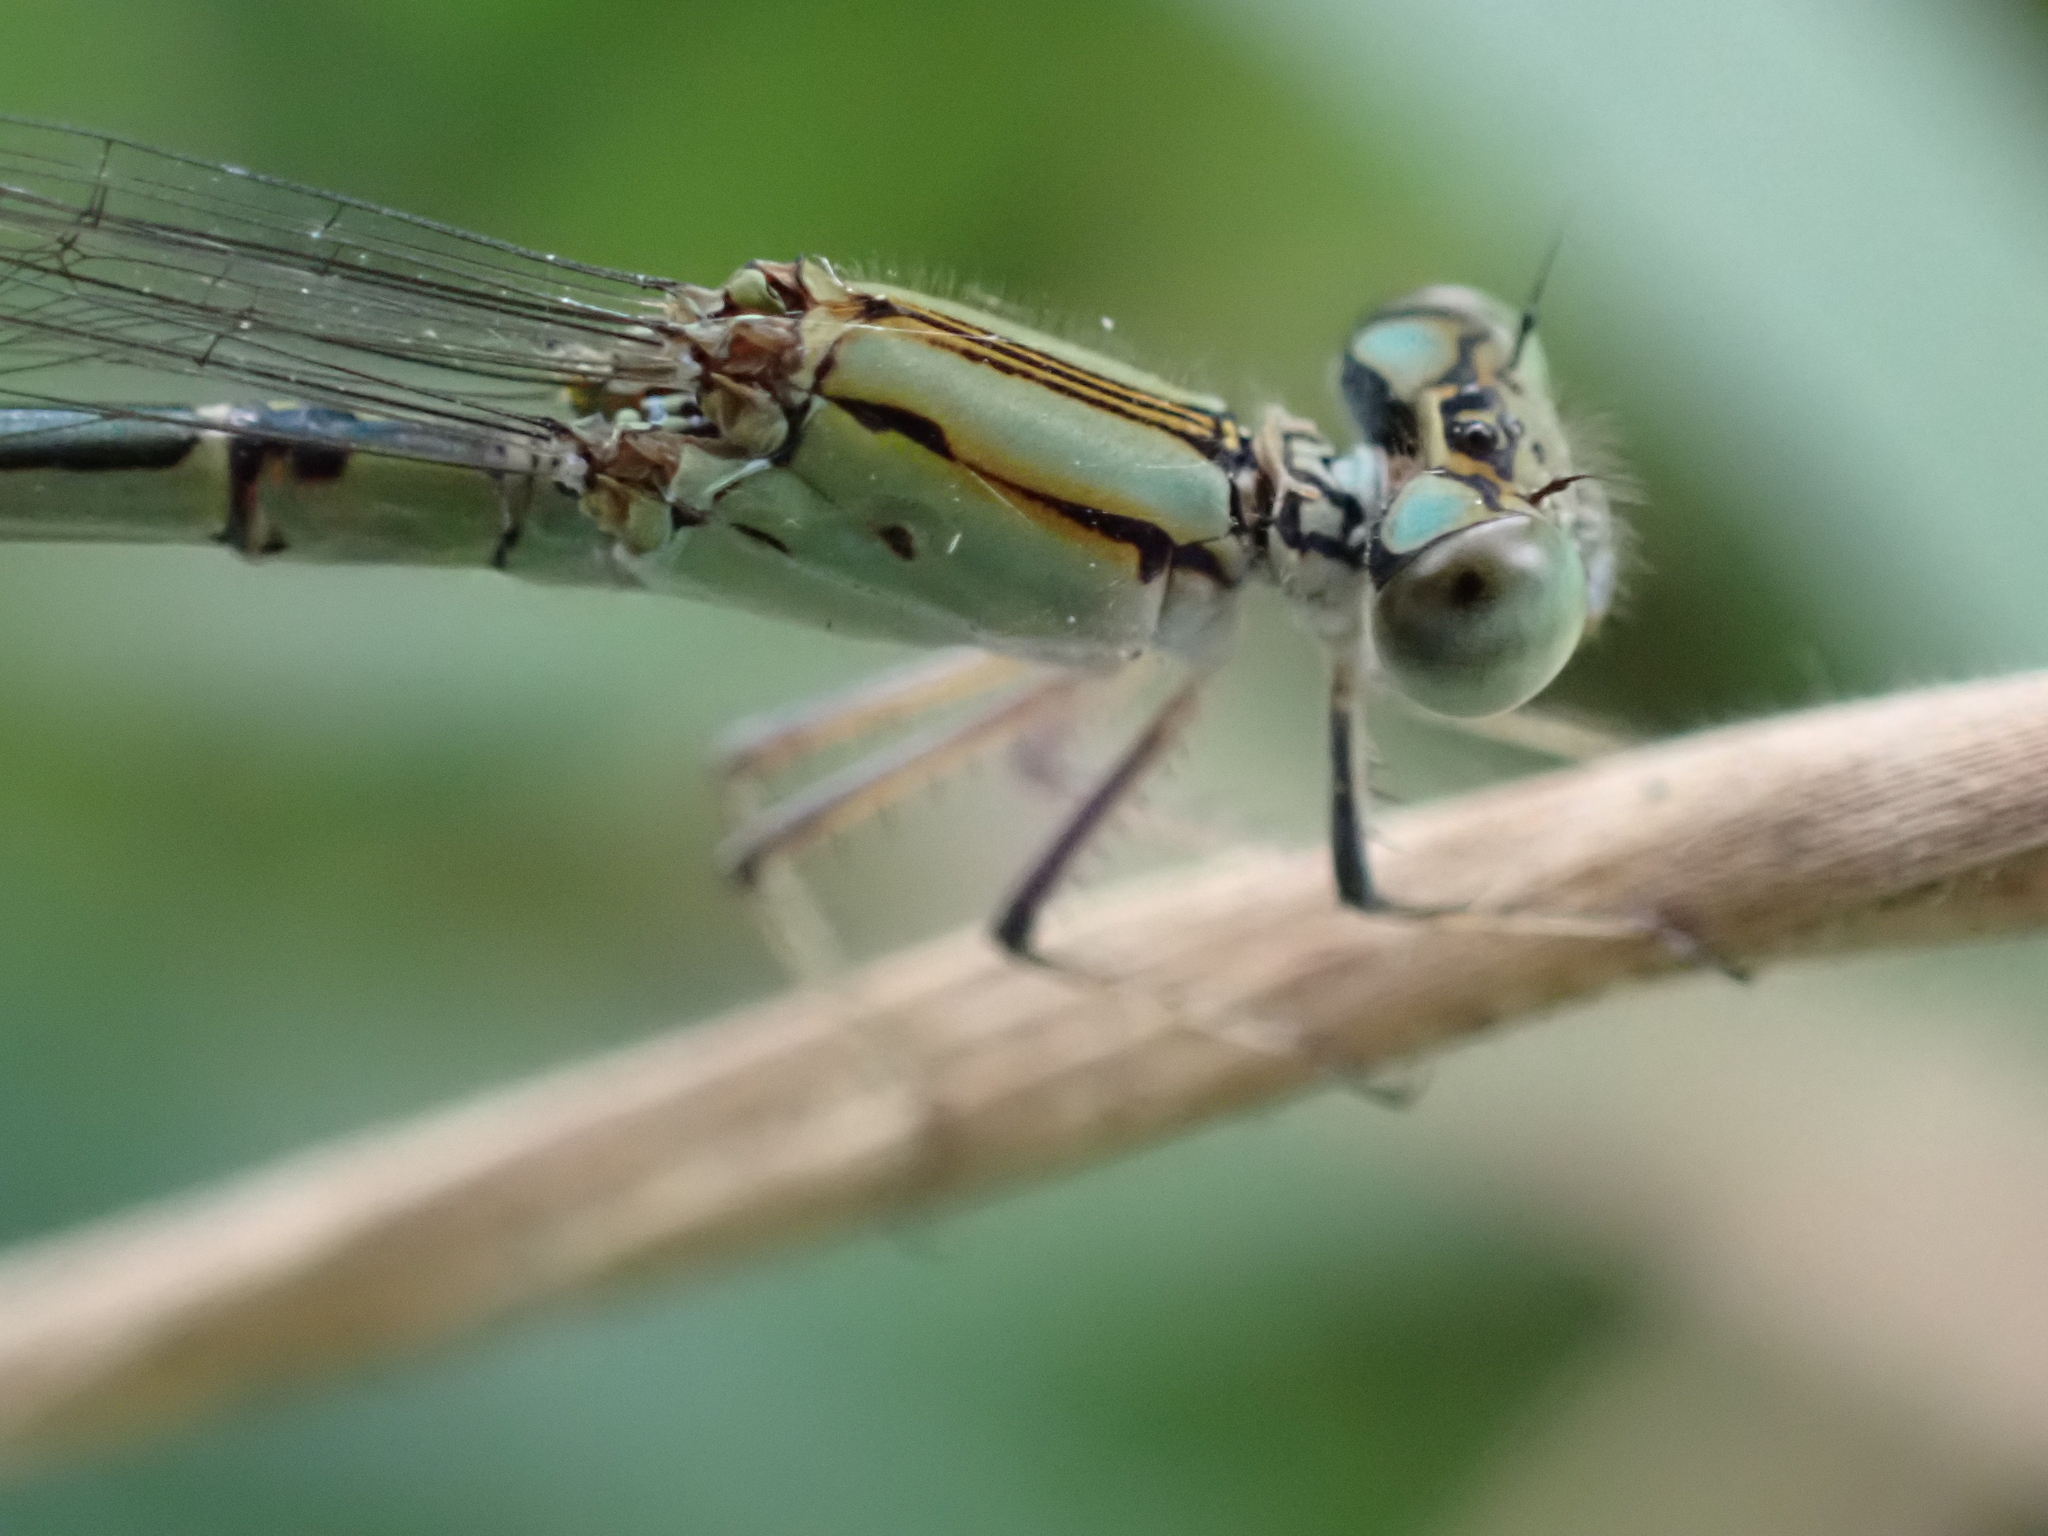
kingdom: Animalia
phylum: Arthropoda
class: Insecta
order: Odonata
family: Coenagrionidae
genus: Pseudagrion
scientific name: Pseudagrion microcephalum
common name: Blue riverdamsel
